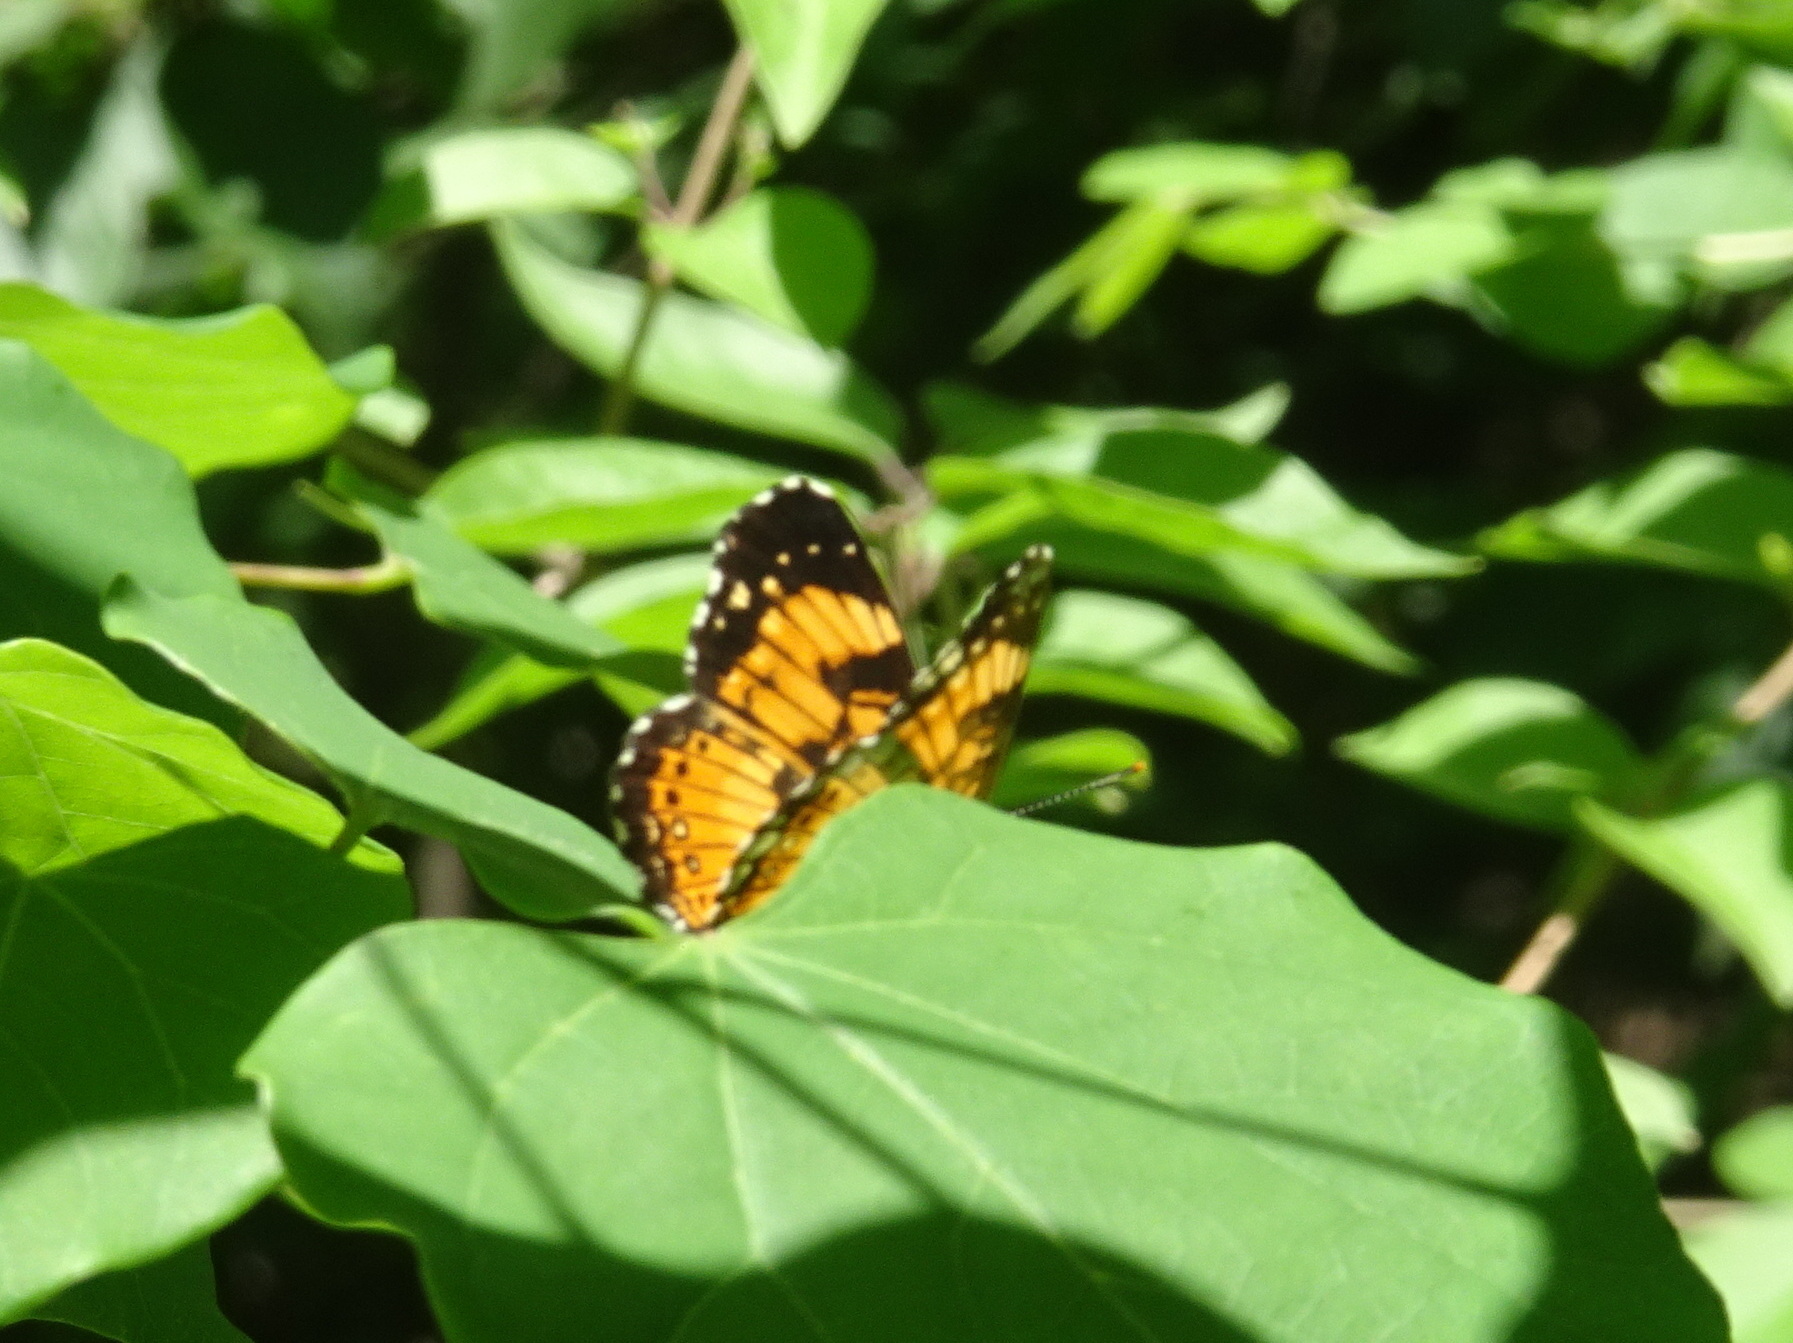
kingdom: Animalia
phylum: Arthropoda
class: Insecta
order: Lepidoptera
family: Nymphalidae
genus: Chlosyne
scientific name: Chlosyne nycteis
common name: Silvery checkerspot
